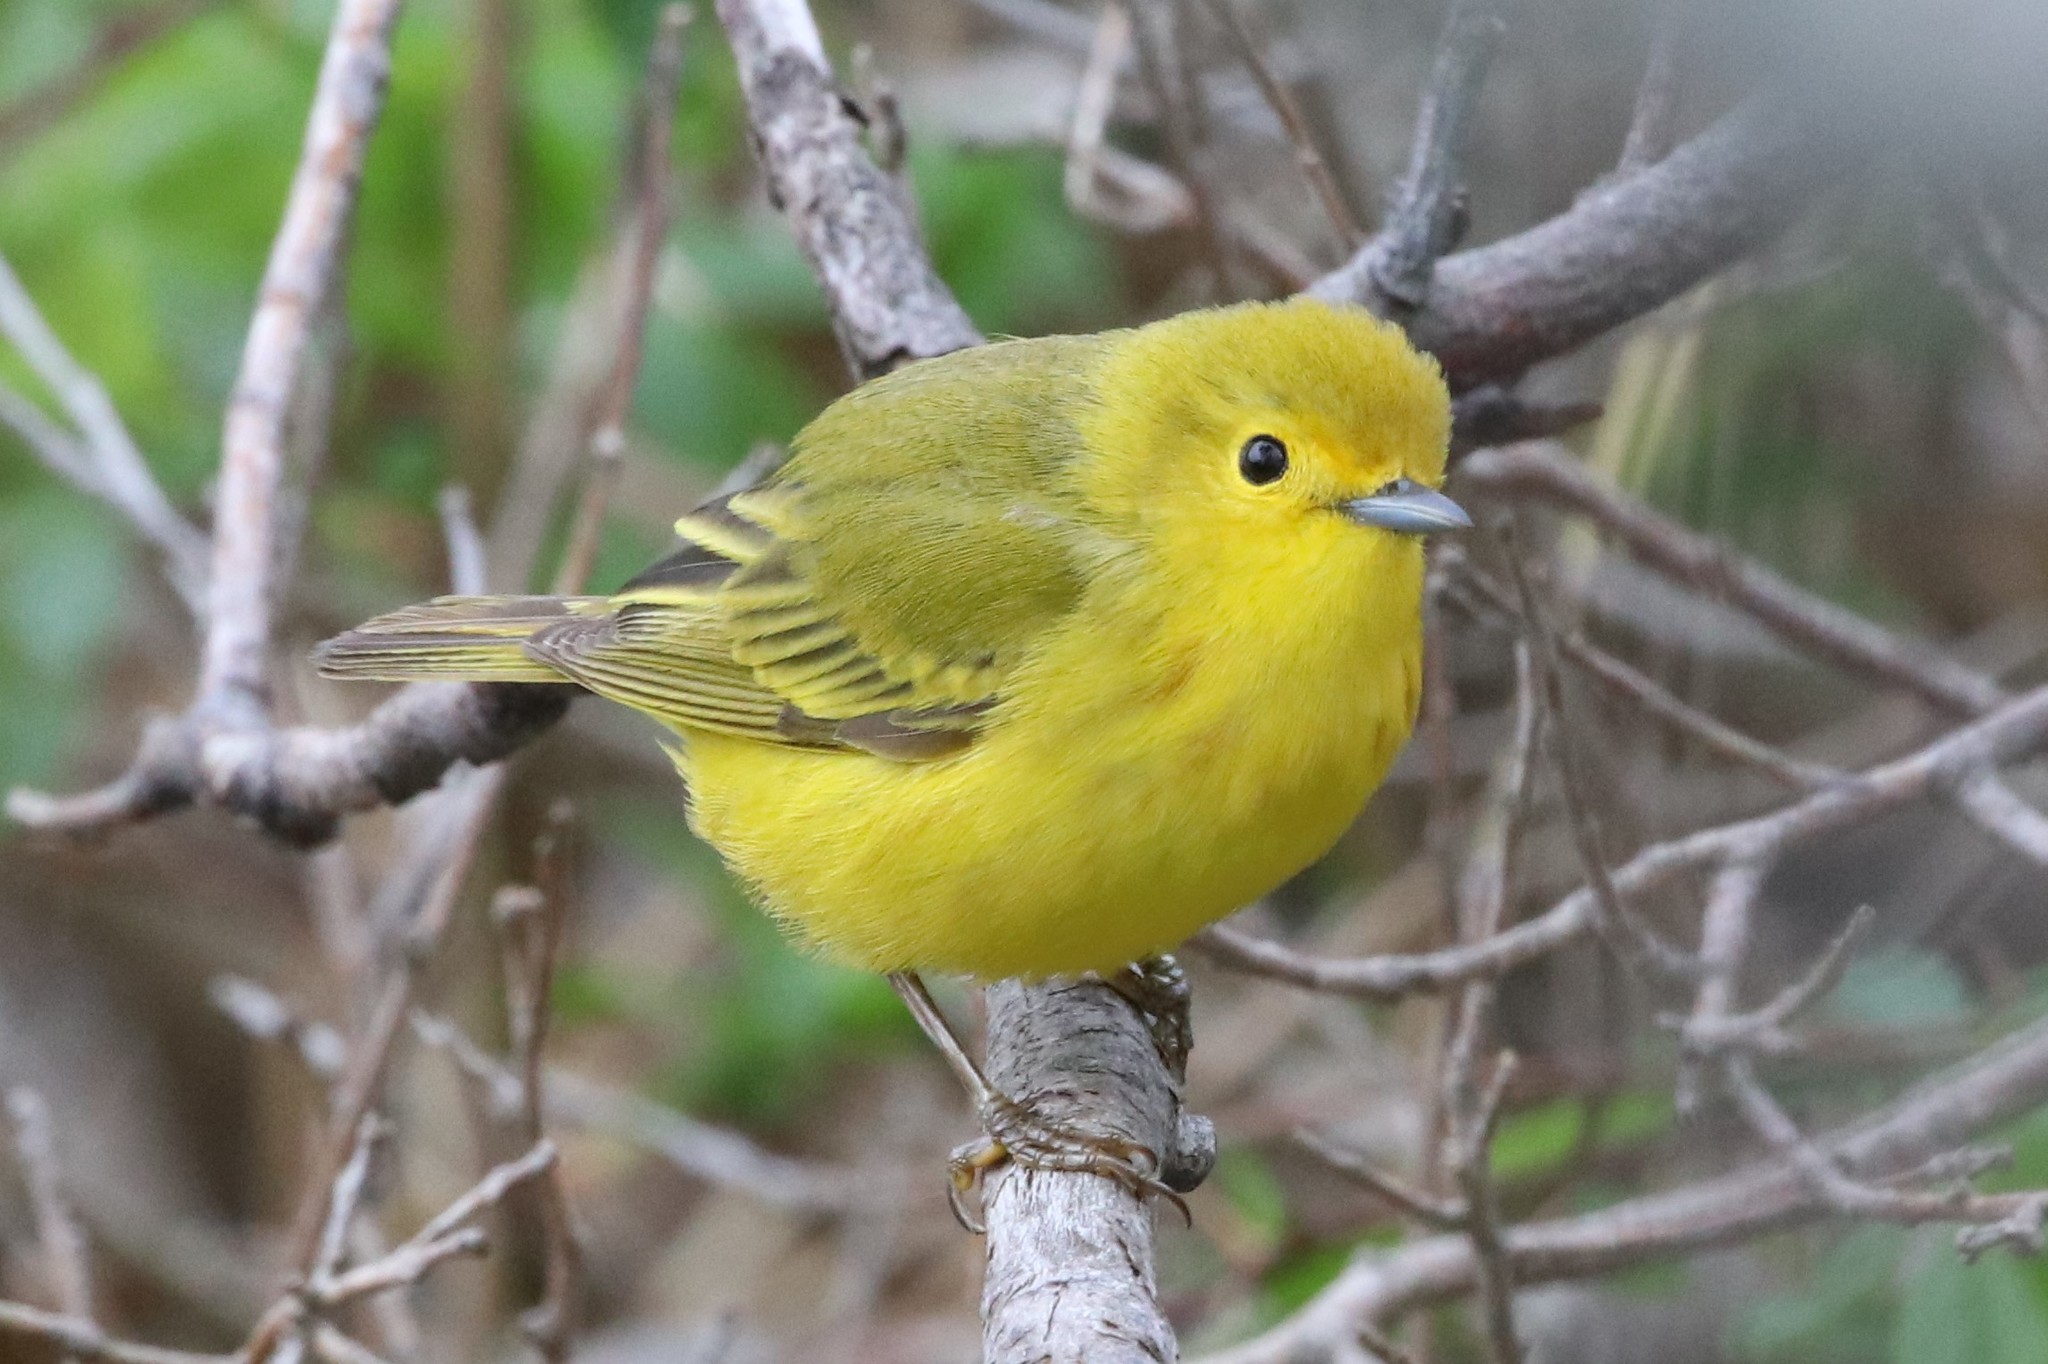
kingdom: Animalia
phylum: Chordata
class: Aves
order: Passeriformes
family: Parulidae
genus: Setophaga
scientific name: Setophaga petechia
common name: Yellow warbler
